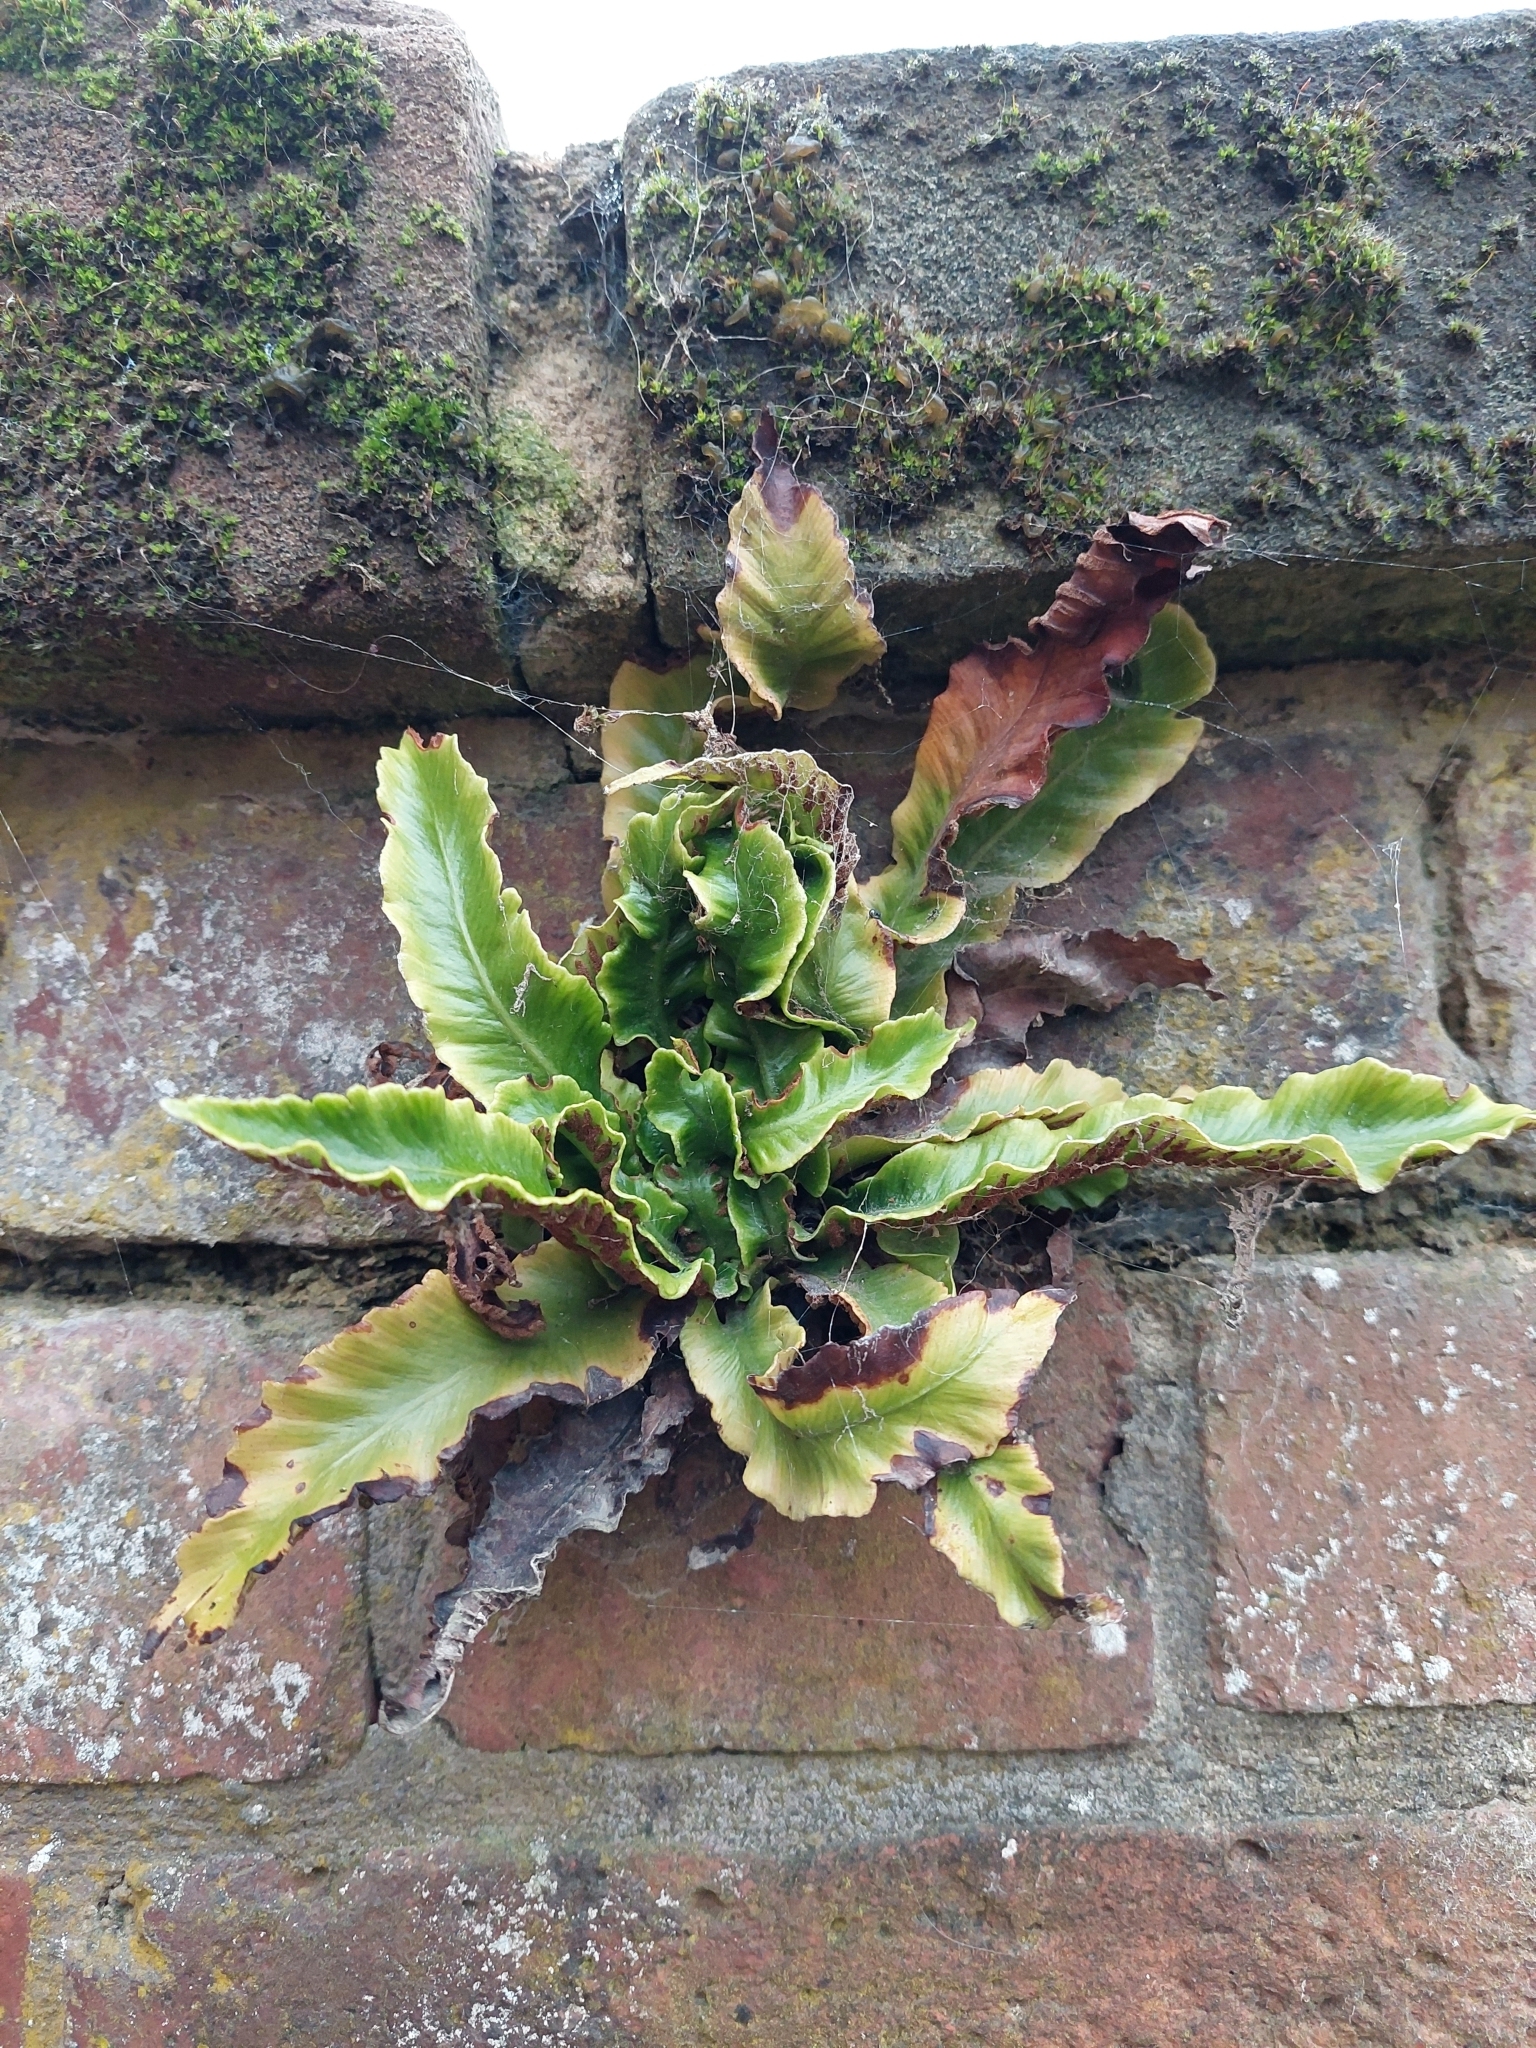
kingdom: Plantae
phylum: Tracheophyta
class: Polypodiopsida
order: Polypodiales
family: Aspleniaceae
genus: Asplenium
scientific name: Asplenium scolopendrium
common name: Hart's-tongue fern
